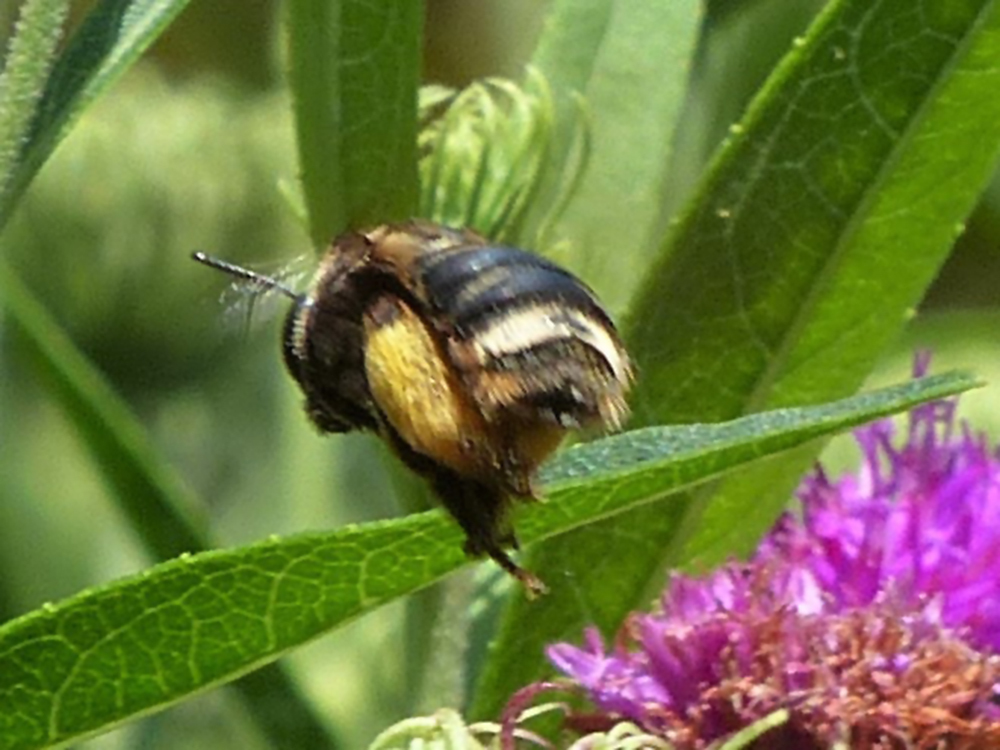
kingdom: Animalia
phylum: Arthropoda
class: Insecta
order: Hymenoptera
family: Apidae
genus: Svastra
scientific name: Svastra obliqua
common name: Oblique longhorn
